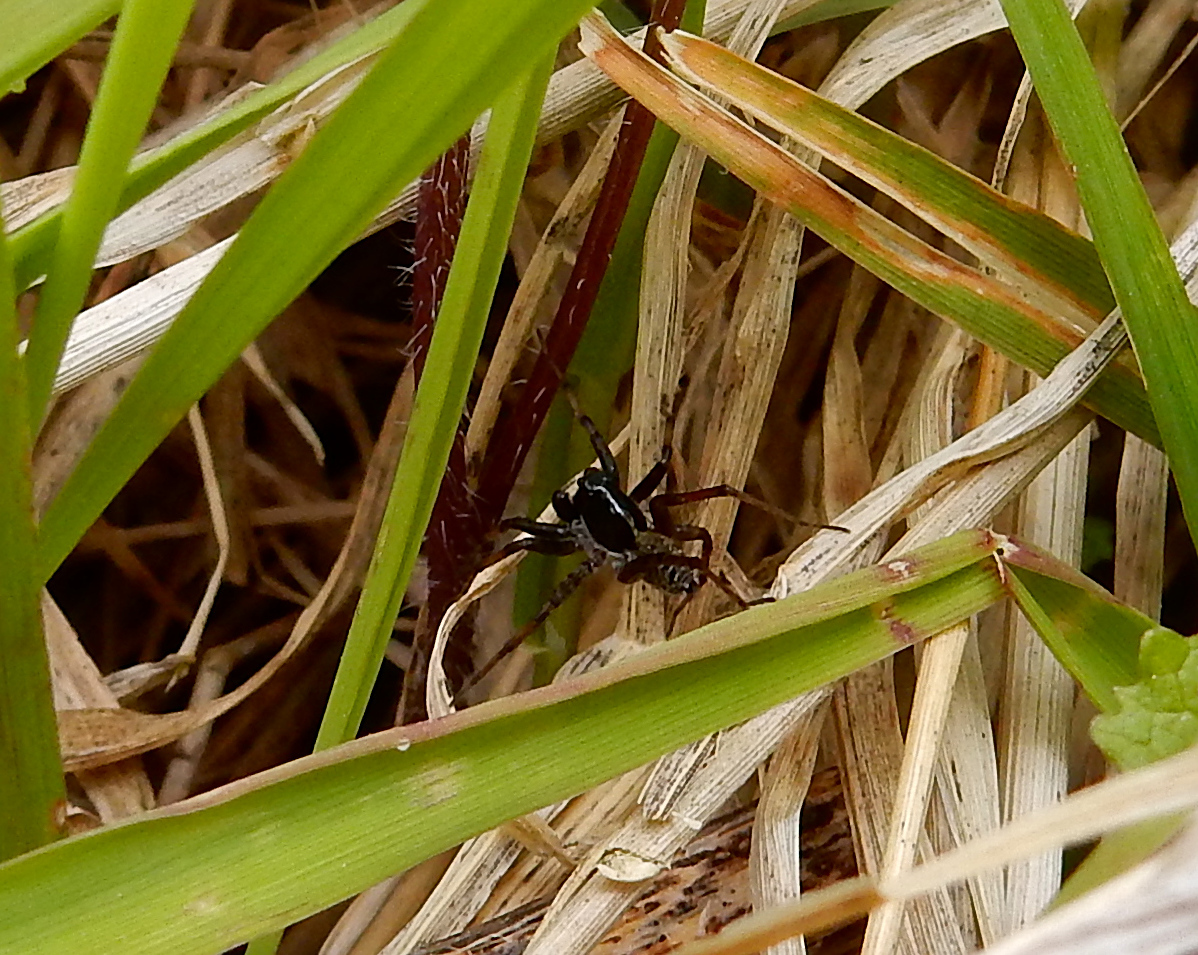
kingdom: Animalia
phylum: Arthropoda
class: Arachnida
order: Araneae
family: Lycosidae
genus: Pardosa
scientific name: Pardosa moesta
